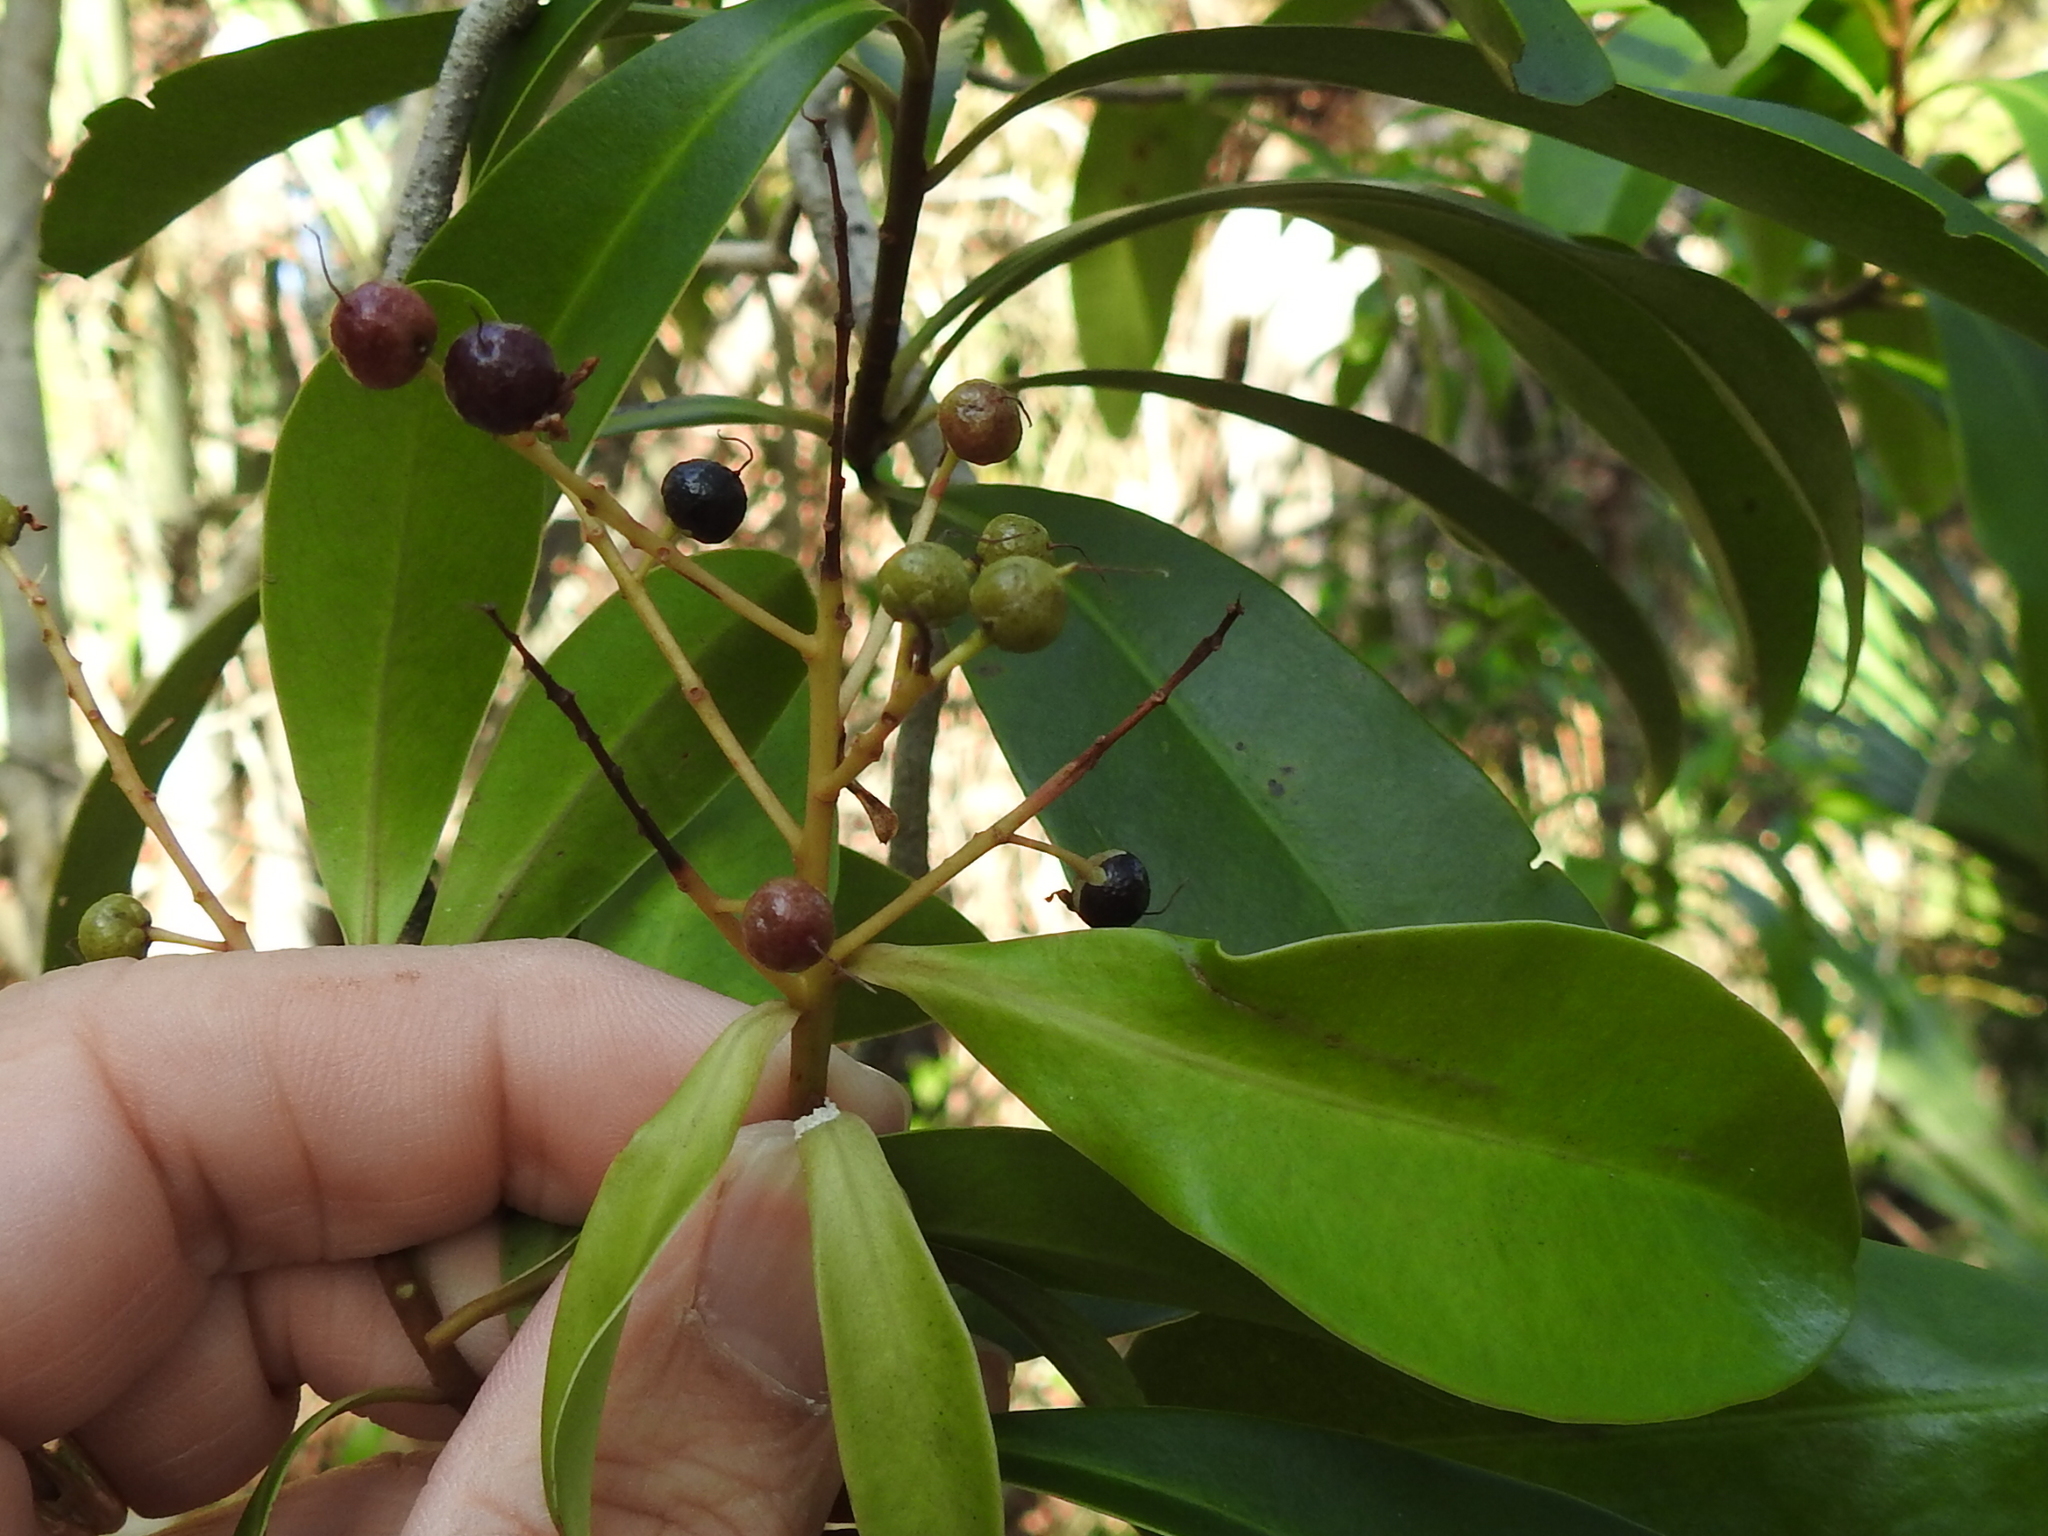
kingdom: Plantae
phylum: Tracheophyta
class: Magnoliopsida
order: Ericales
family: Primulaceae
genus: Ardisia
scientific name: Ardisia escallonioides
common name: Island marlberry
